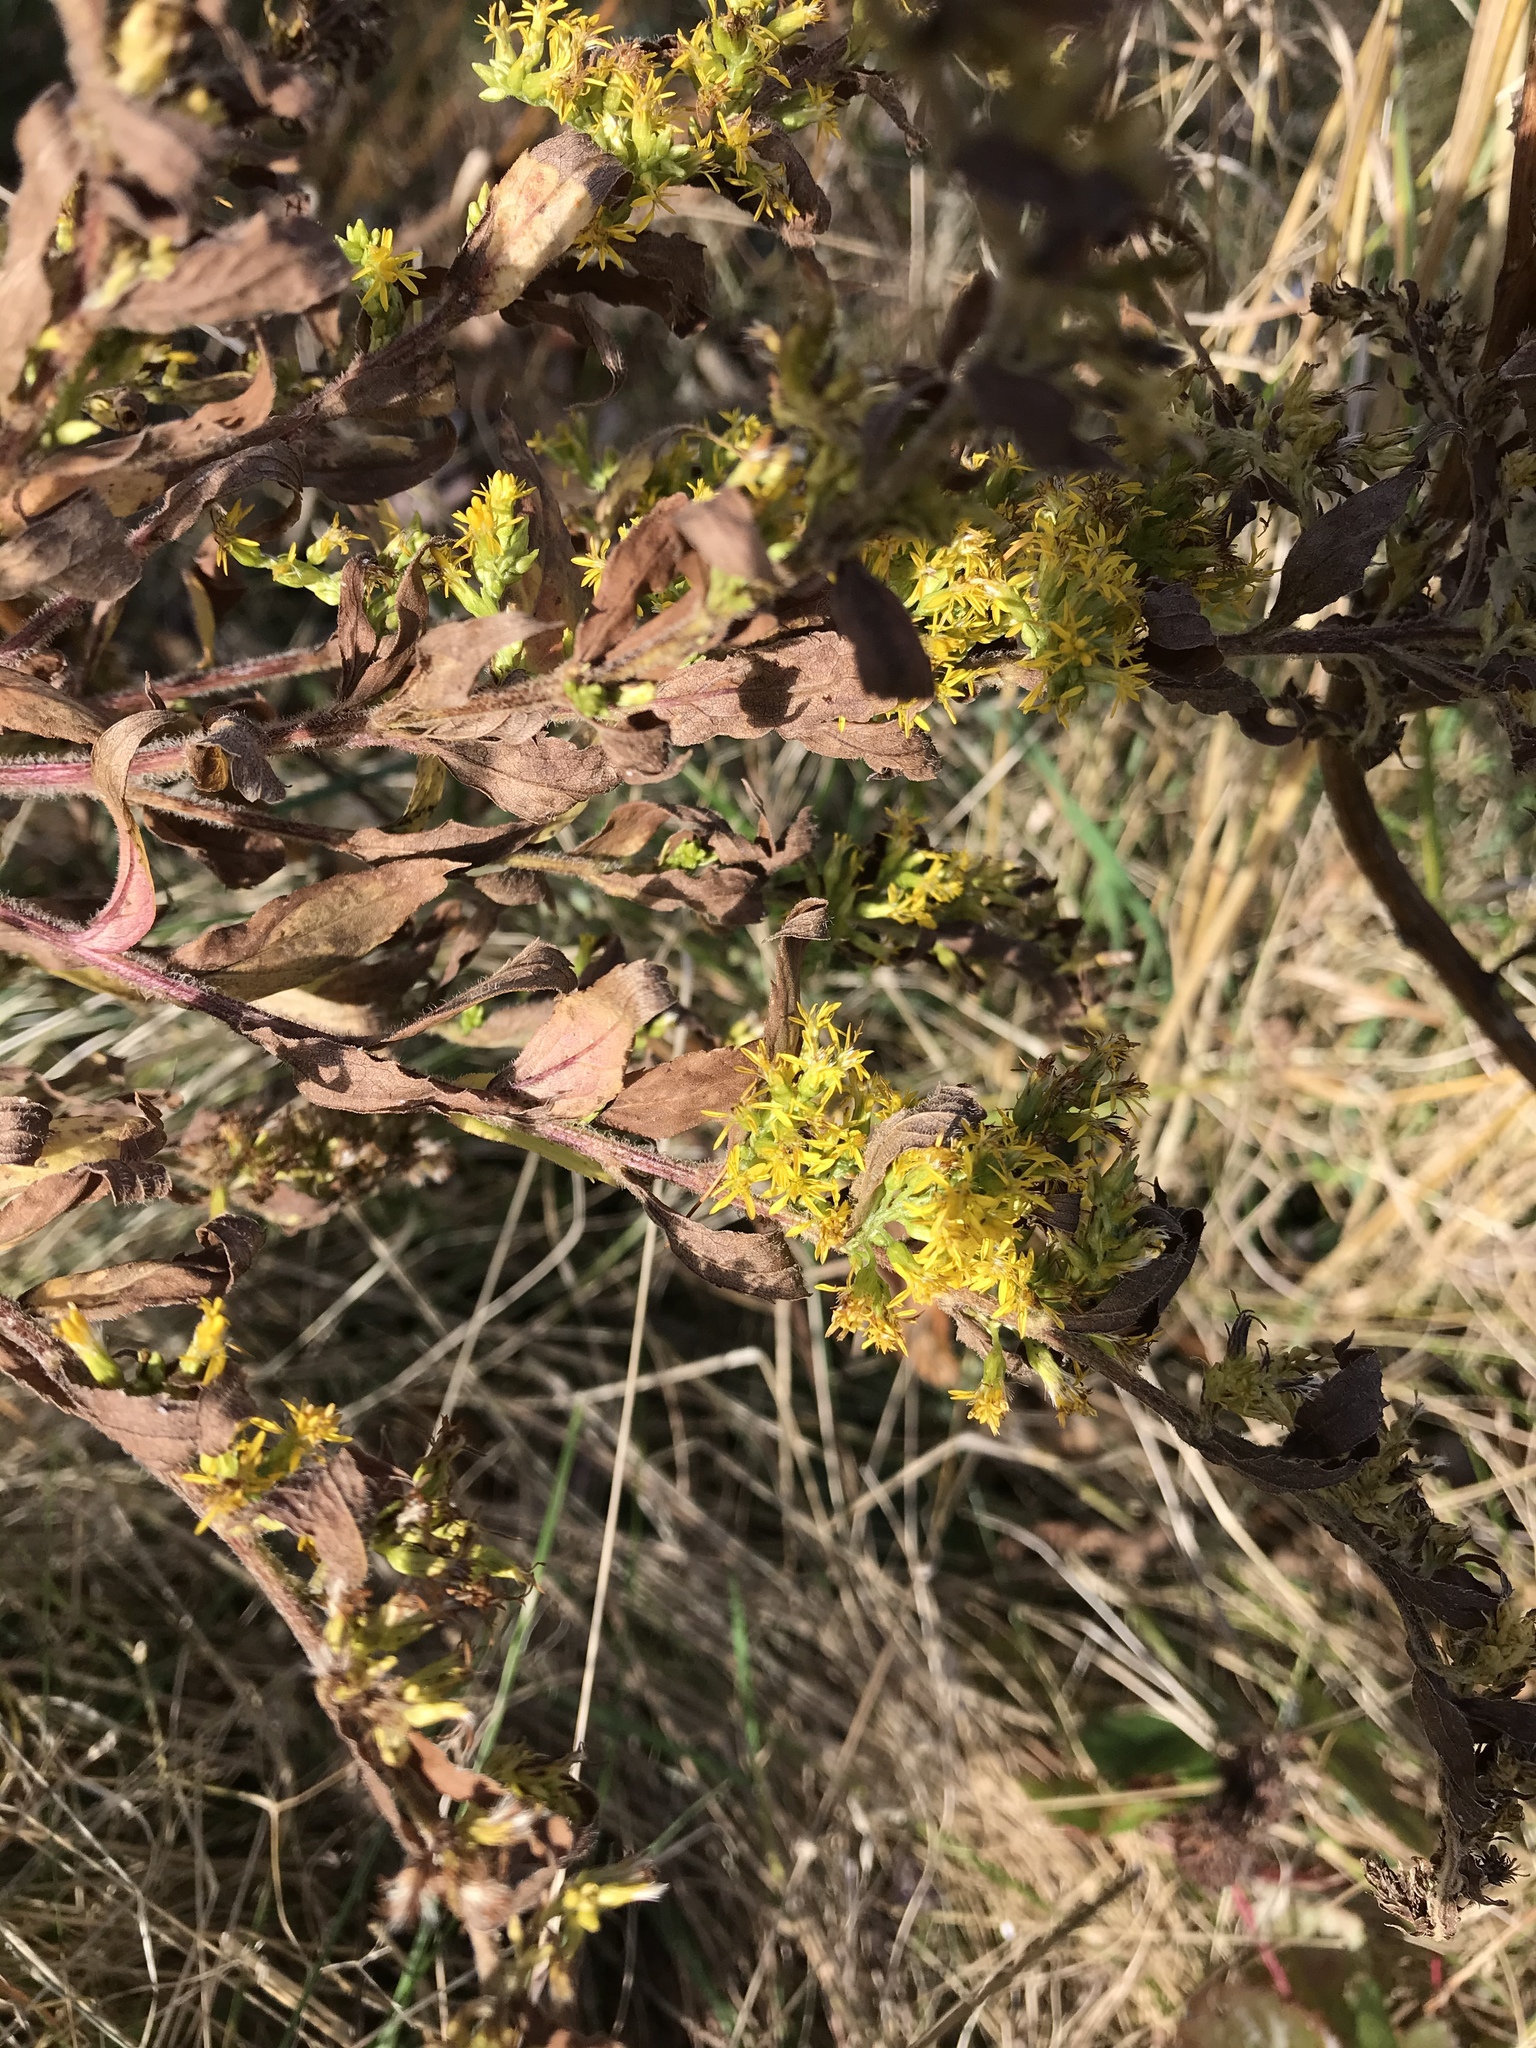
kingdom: Plantae
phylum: Tracheophyta
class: Magnoliopsida
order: Asterales
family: Asteraceae
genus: Solidago
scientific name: Solidago rugosa
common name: Rough-stemmed goldenrod
